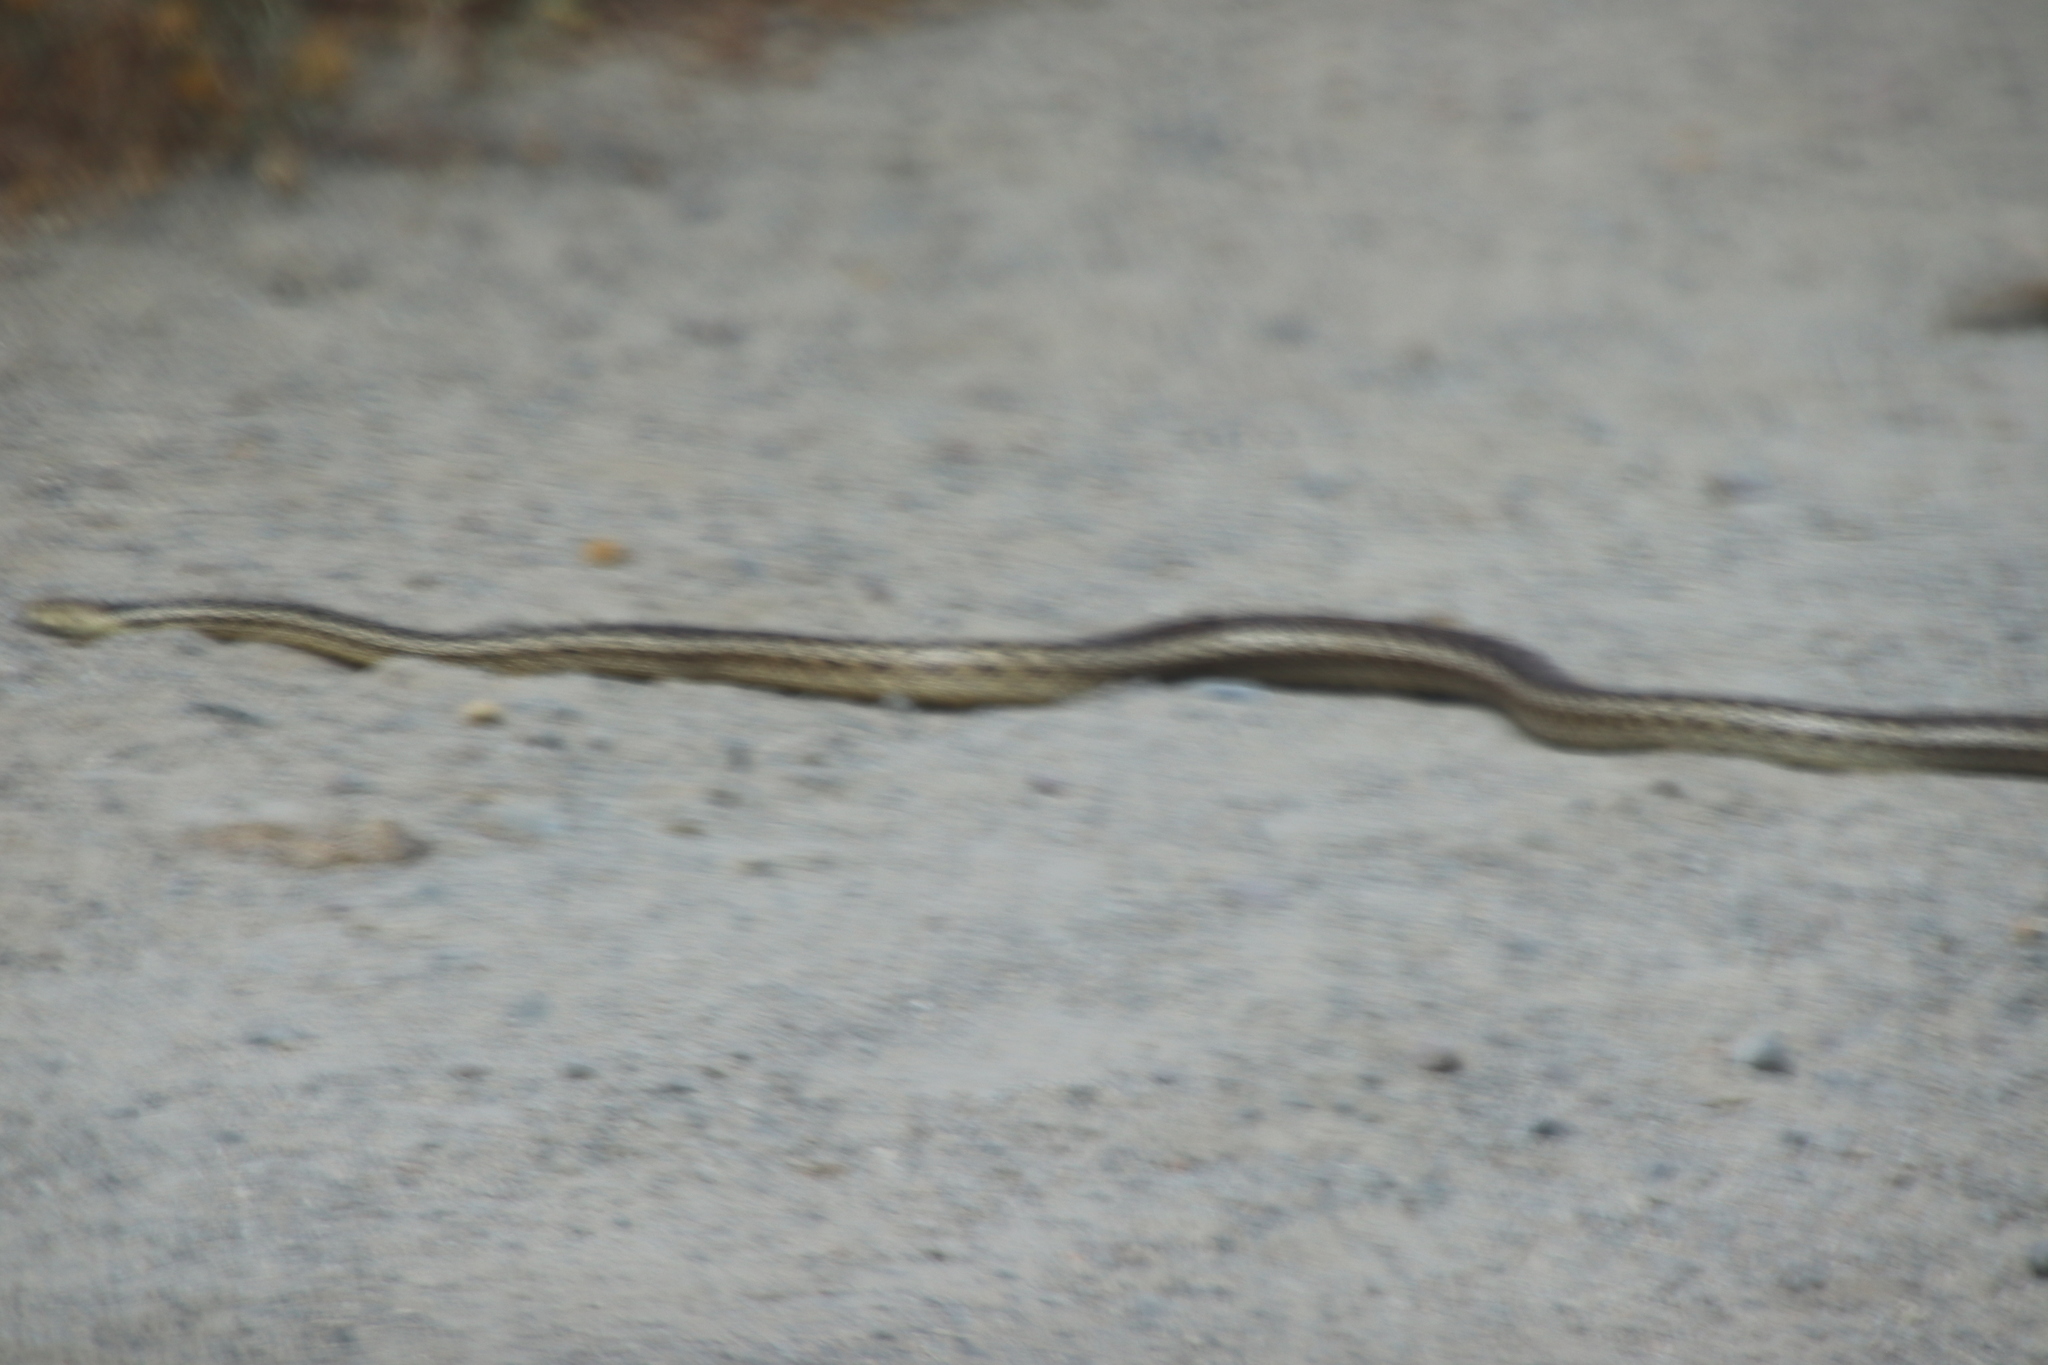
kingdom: Animalia
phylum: Chordata
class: Squamata
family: Colubridae
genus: Pituophis
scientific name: Pituophis catenifer
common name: Gopher snake
